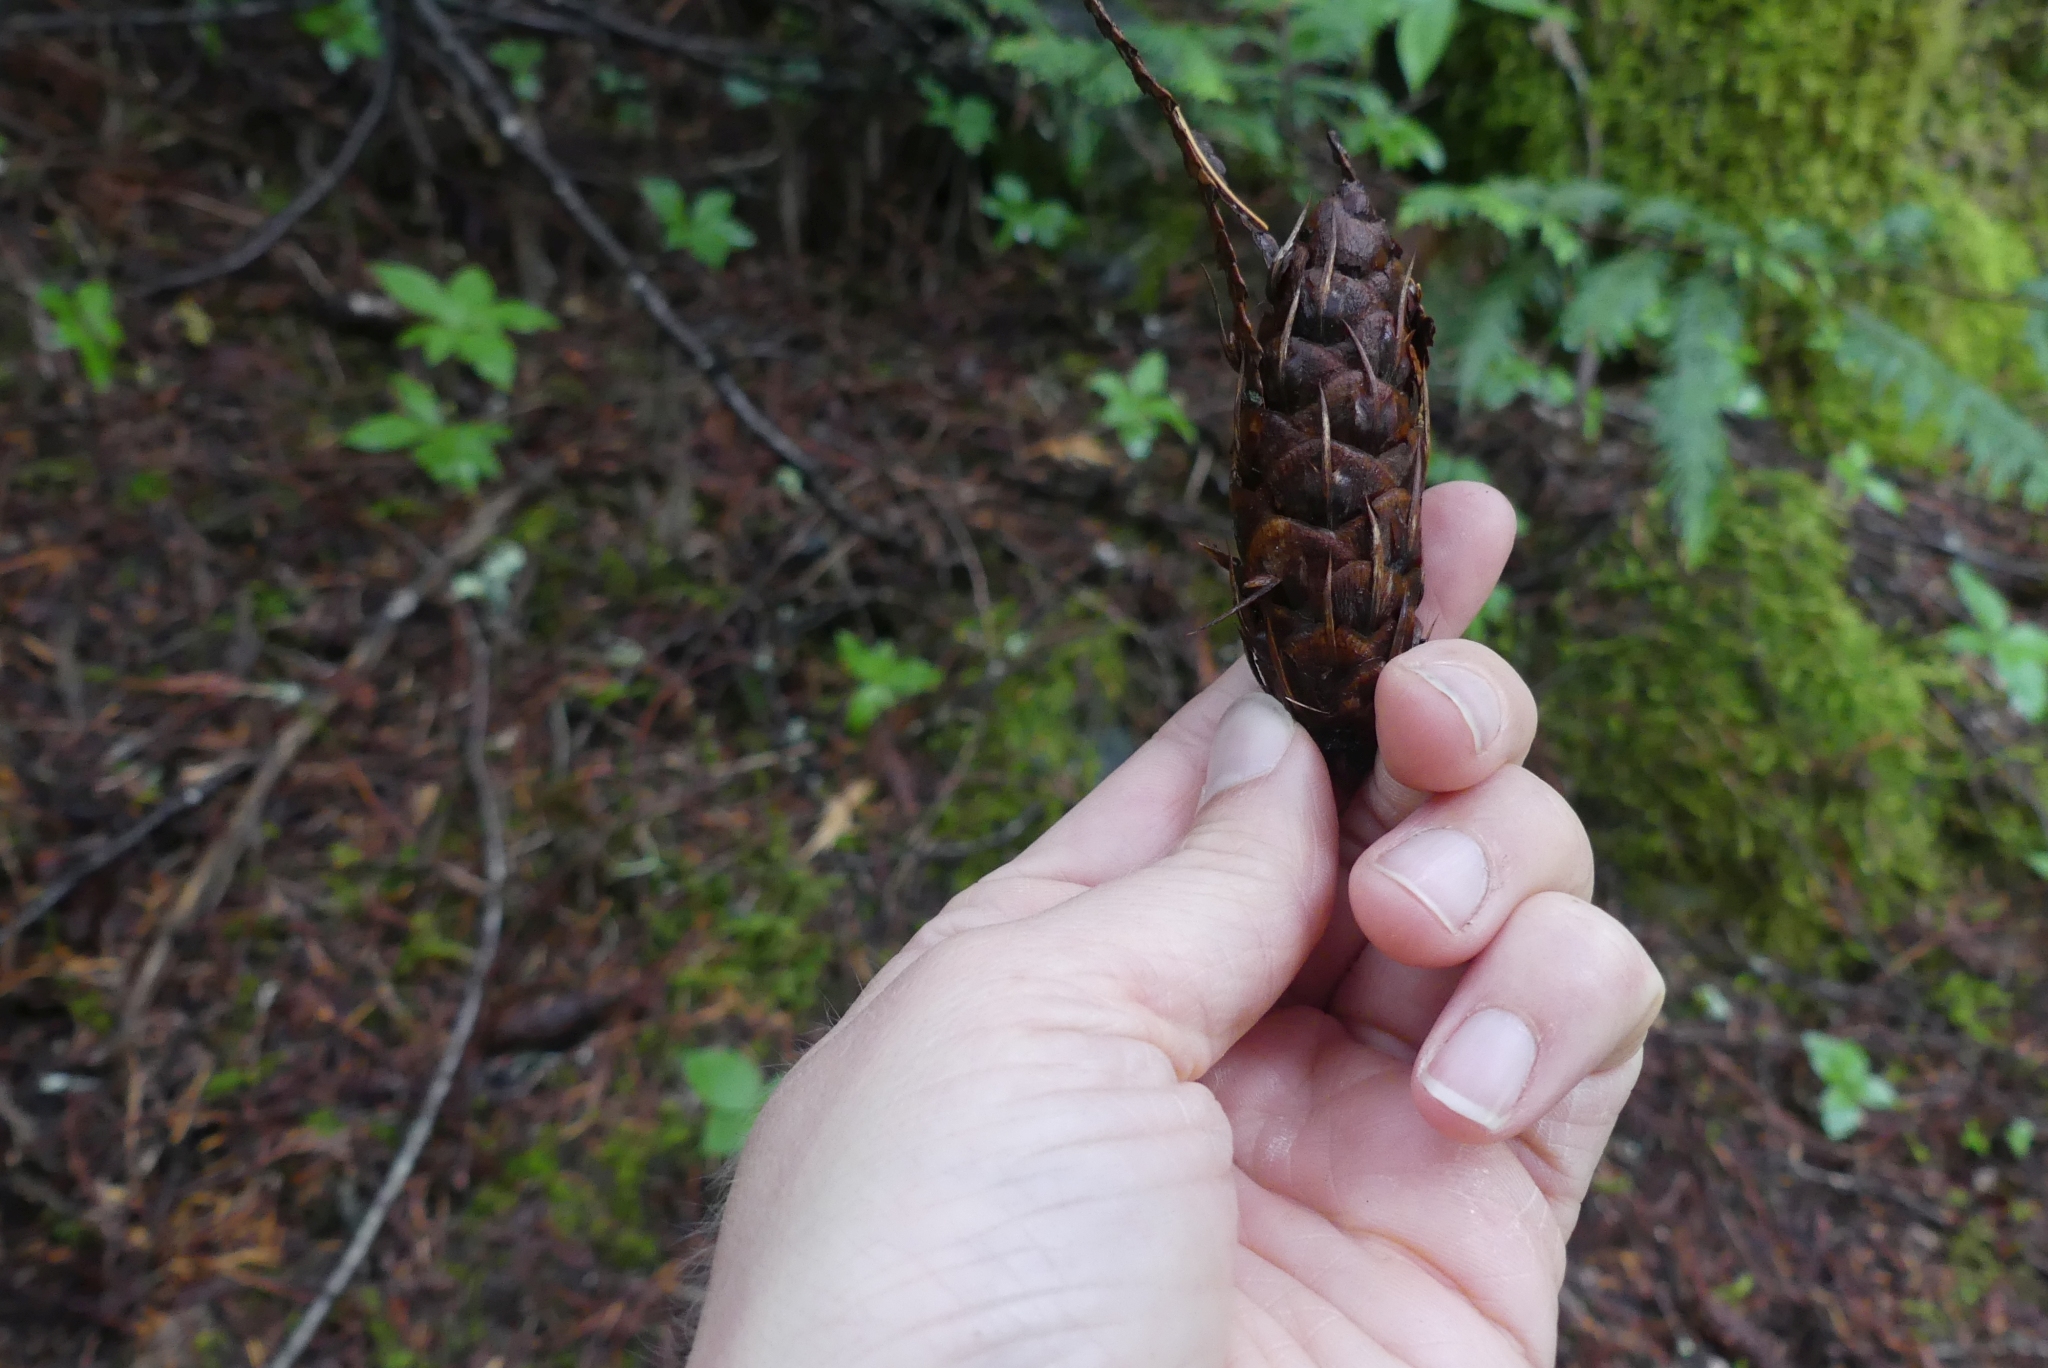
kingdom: Plantae
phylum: Tracheophyta
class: Pinopsida
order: Pinales
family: Pinaceae
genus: Pseudotsuga
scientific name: Pseudotsuga menziesii
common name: Douglas fir
